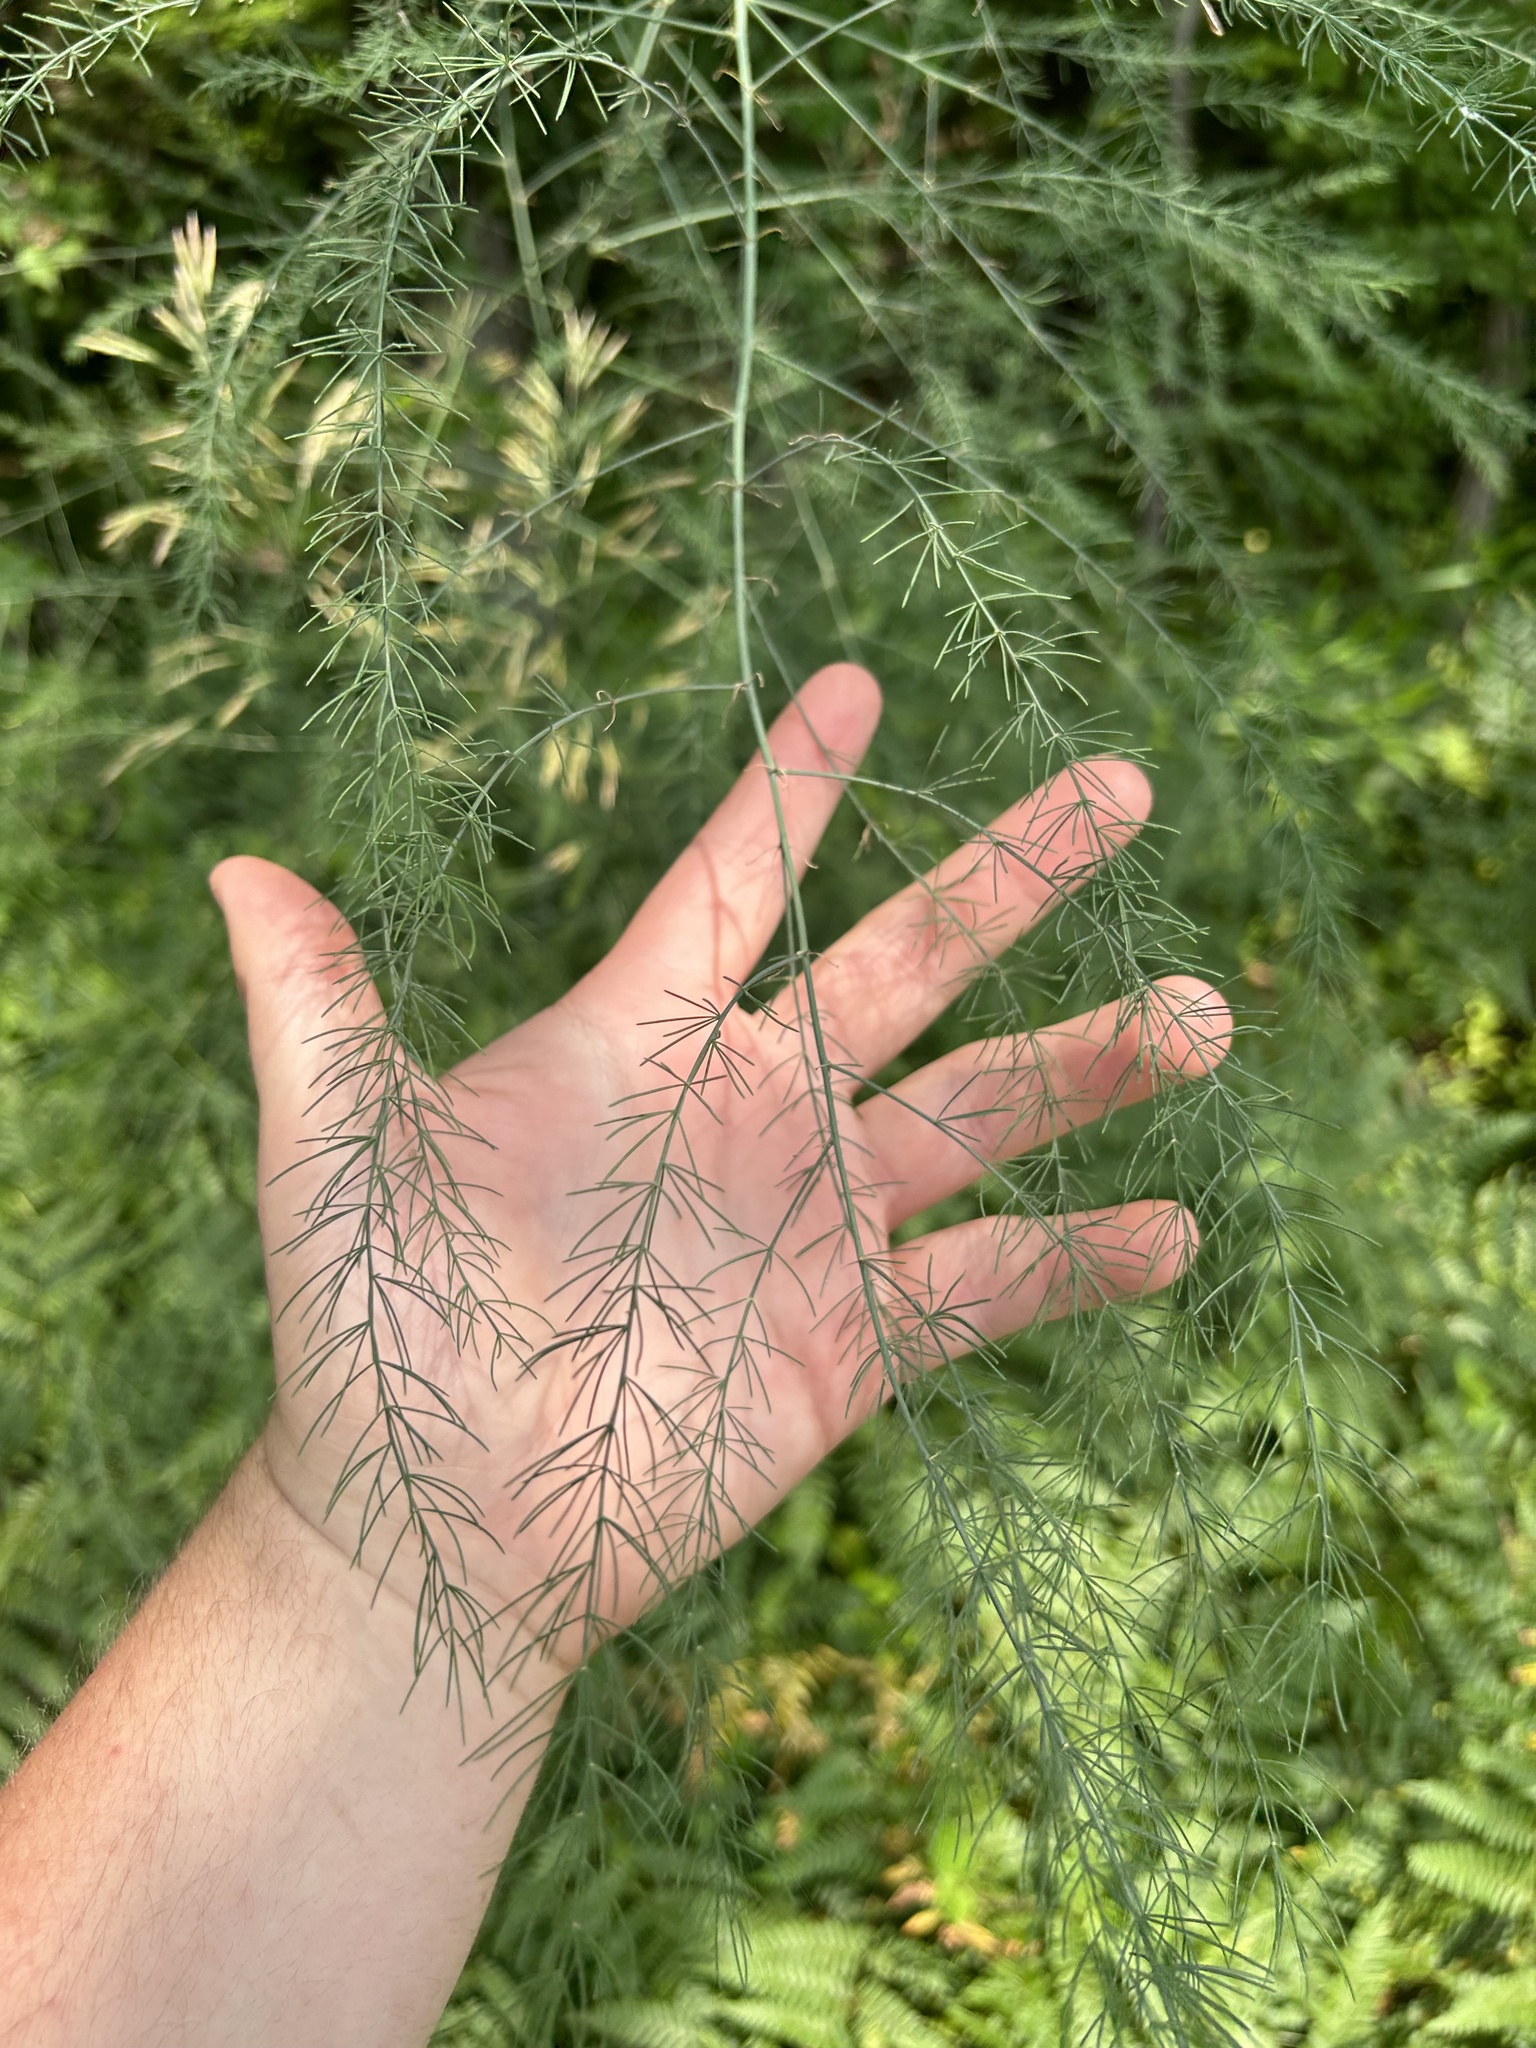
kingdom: Plantae
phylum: Tracheophyta
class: Liliopsida
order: Asparagales
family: Asparagaceae
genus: Asparagus
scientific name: Asparagus officinalis
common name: Garden asparagus
